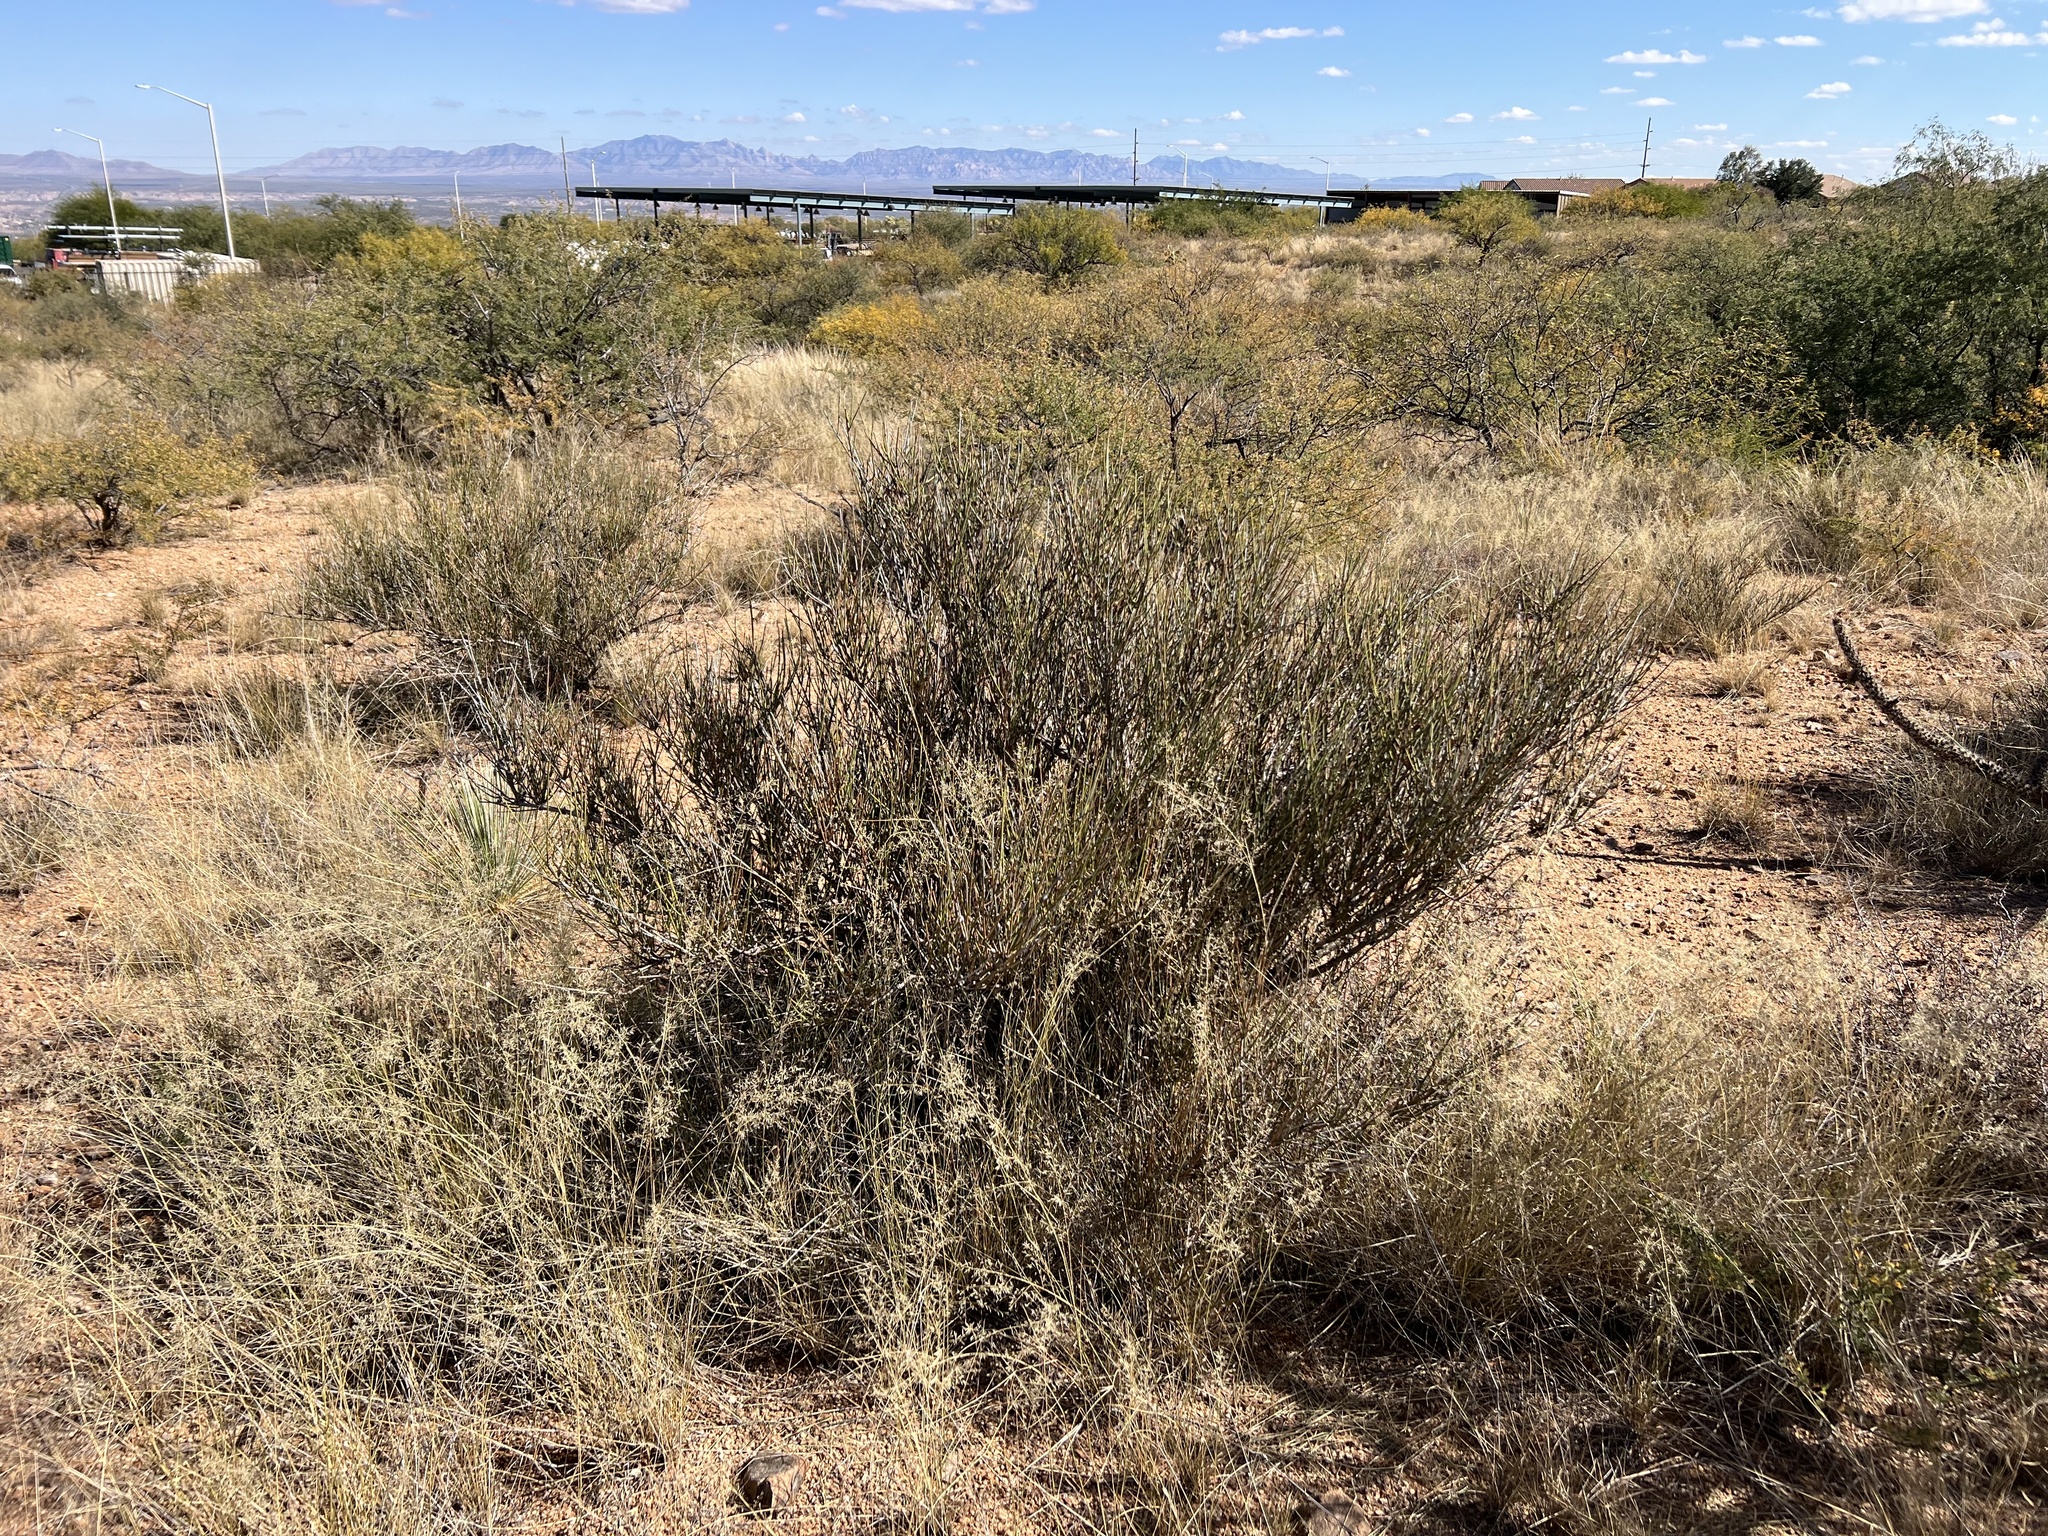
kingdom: Plantae
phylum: Tracheophyta
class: Gnetopsida
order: Ephedrales
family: Ephedraceae
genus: Ephedra
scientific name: Ephedra trifurca
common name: Mexican-tea
